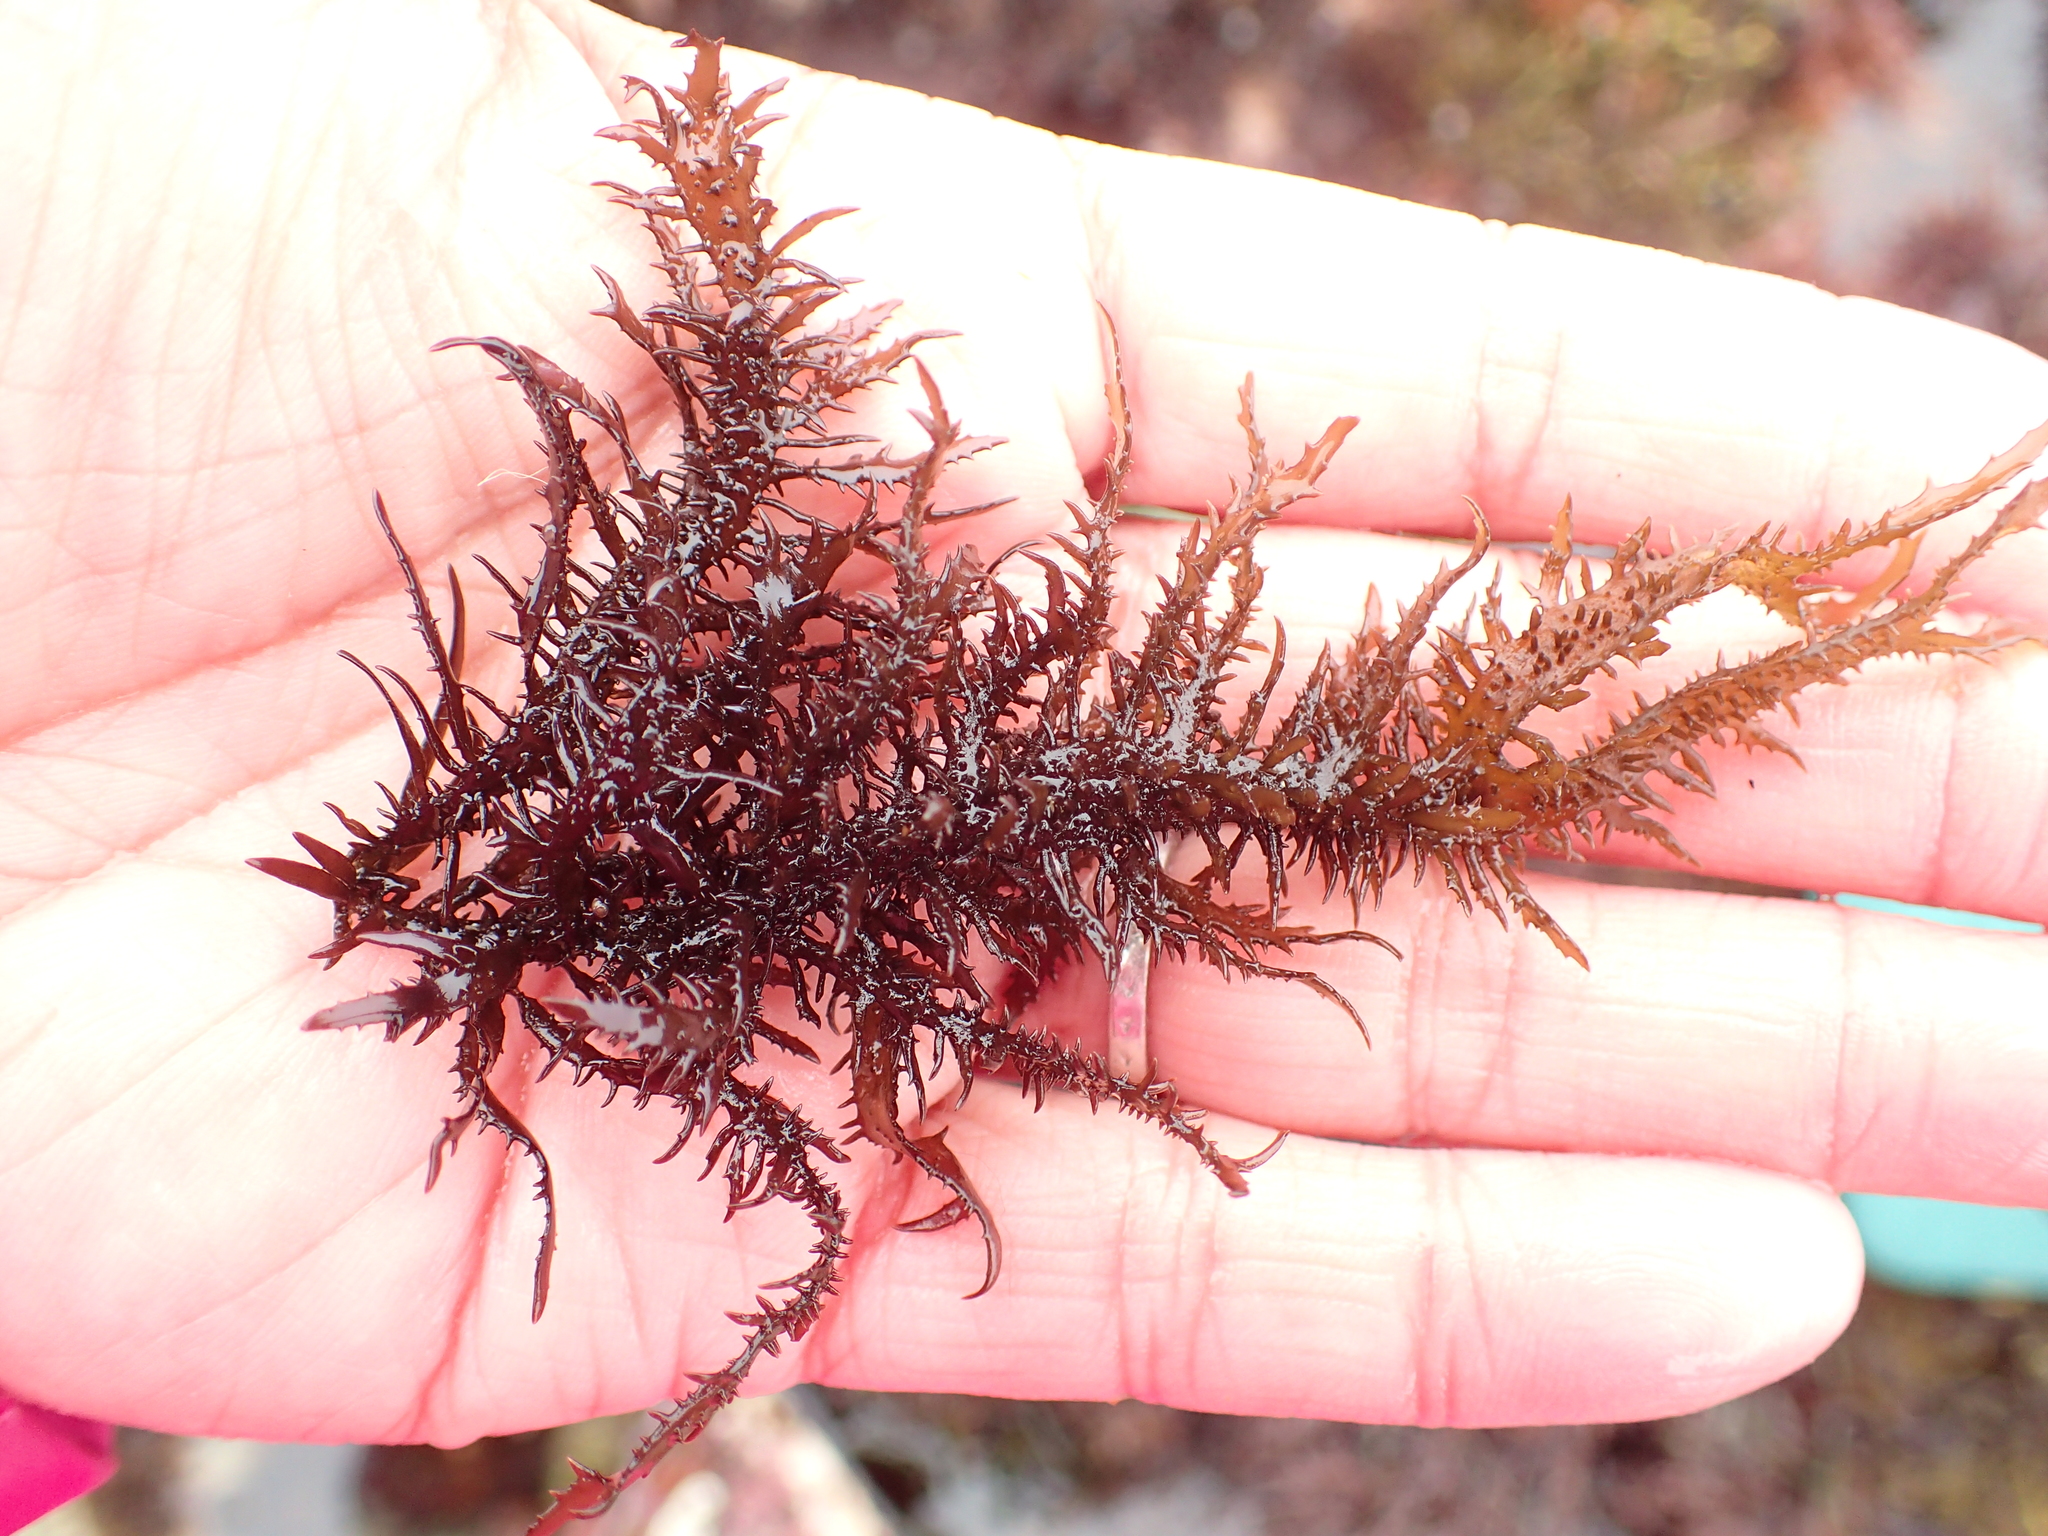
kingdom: Plantae
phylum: Rhodophyta
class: Florideophyceae
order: Gigartinales
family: Gigartinaceae
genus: Mazzaella
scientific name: Mazzaella leptorhynchos
